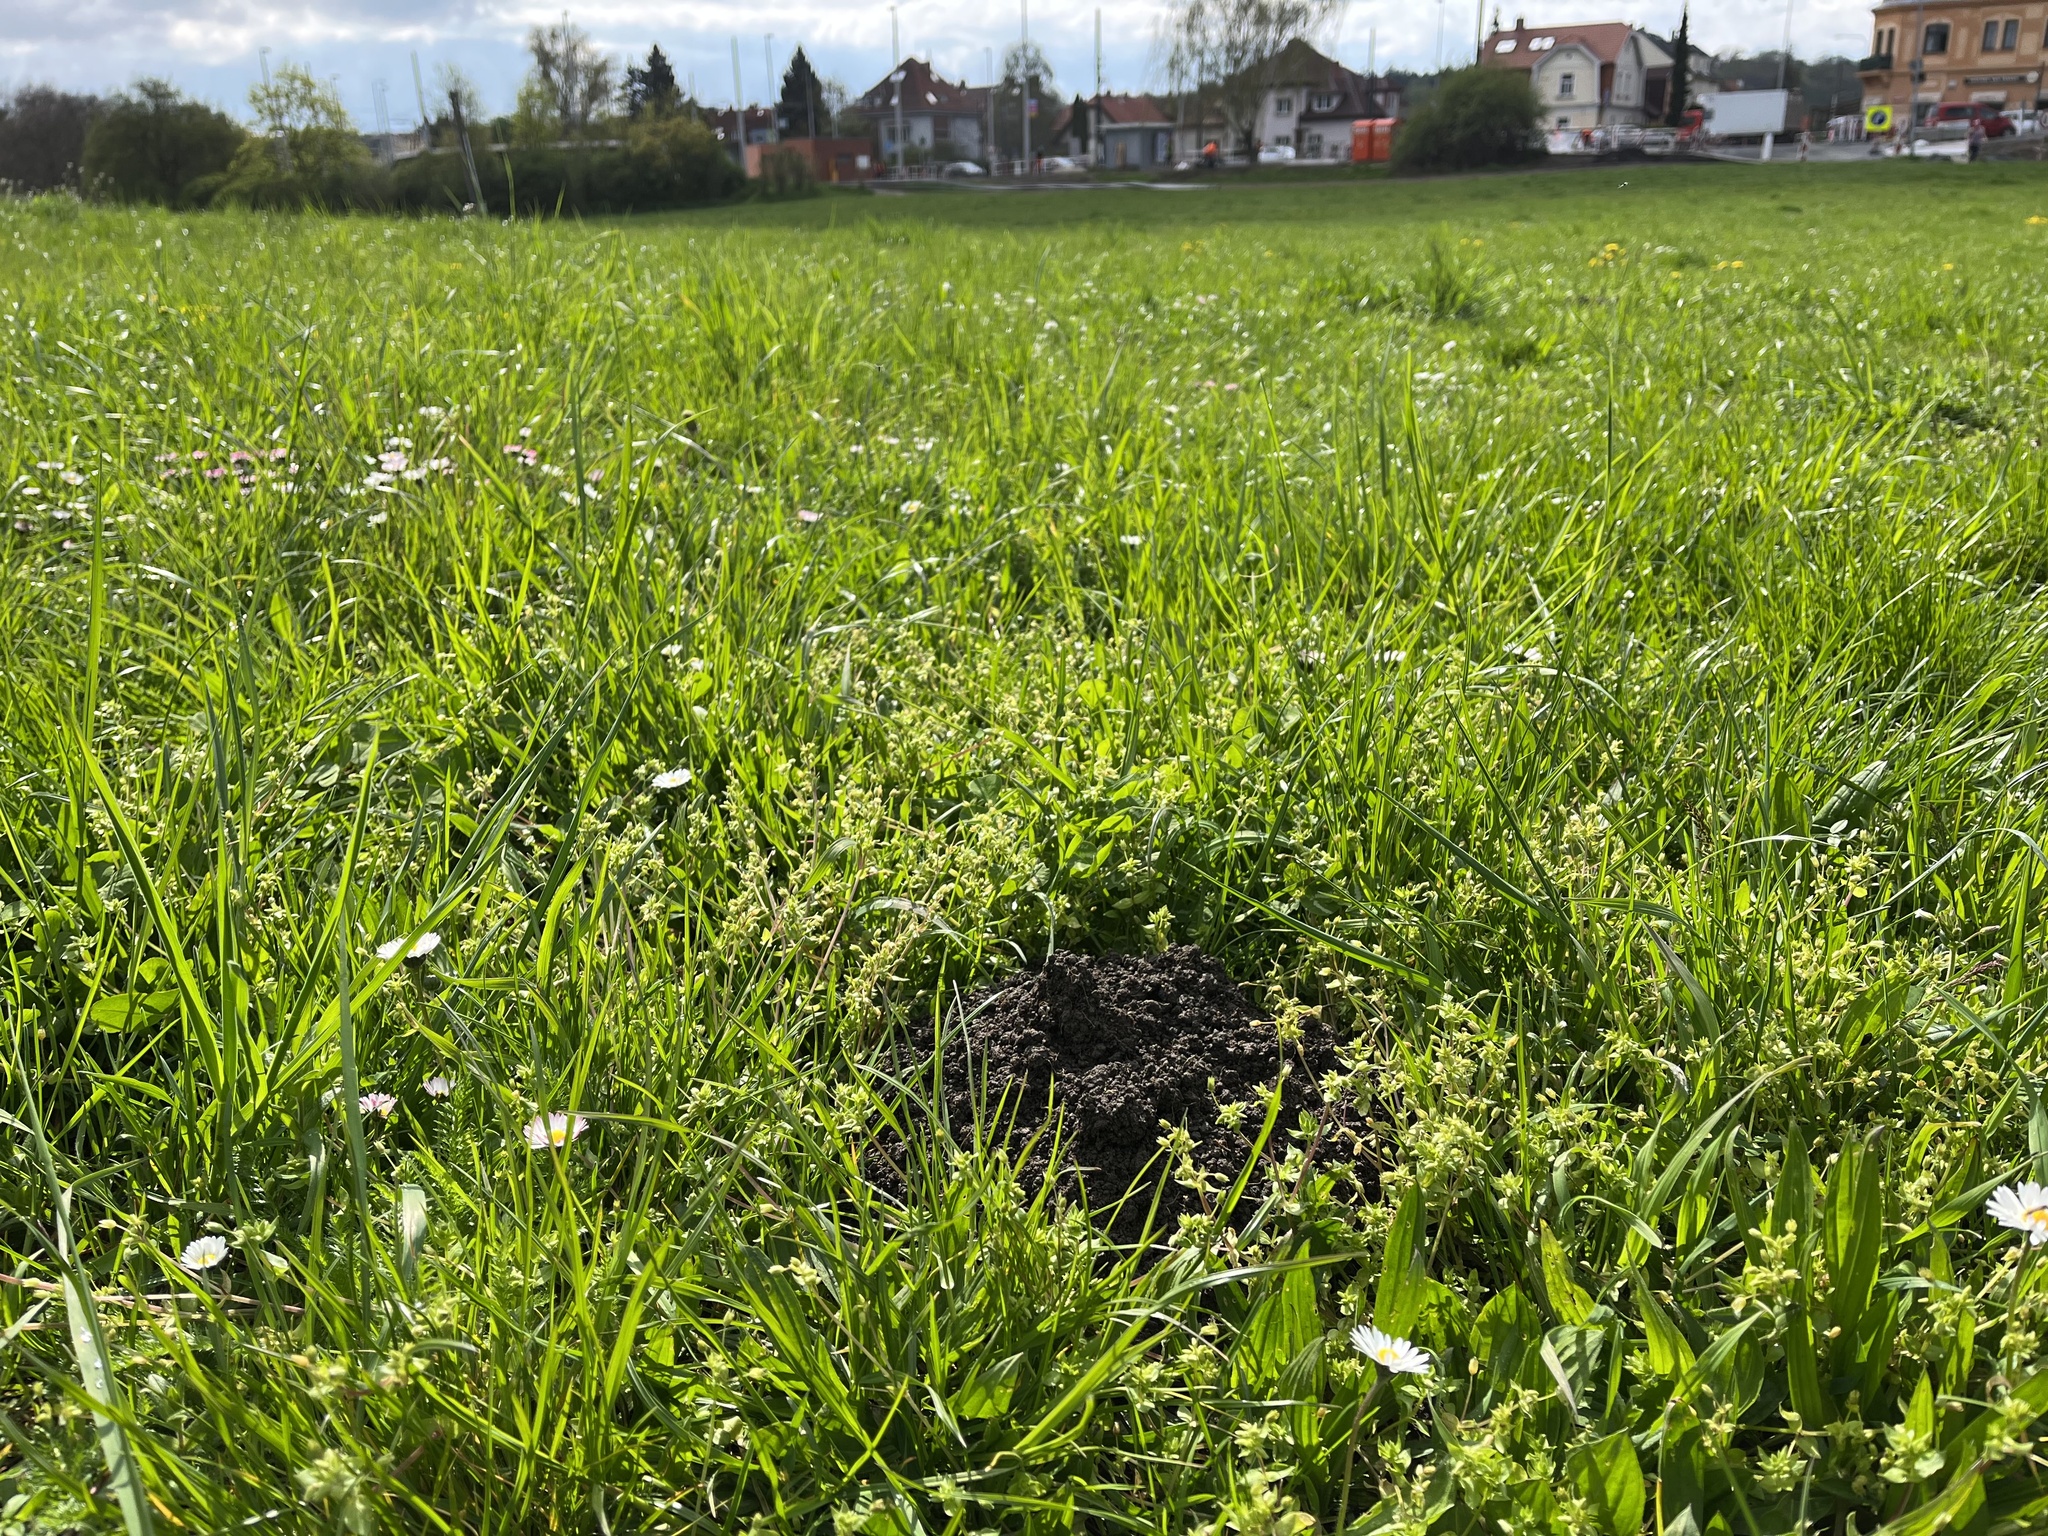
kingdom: Animalia
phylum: Chordata
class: Mammalia
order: Soricomorpha
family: Talpidae
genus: Talpa
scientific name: Talpa europaea
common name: European mole
